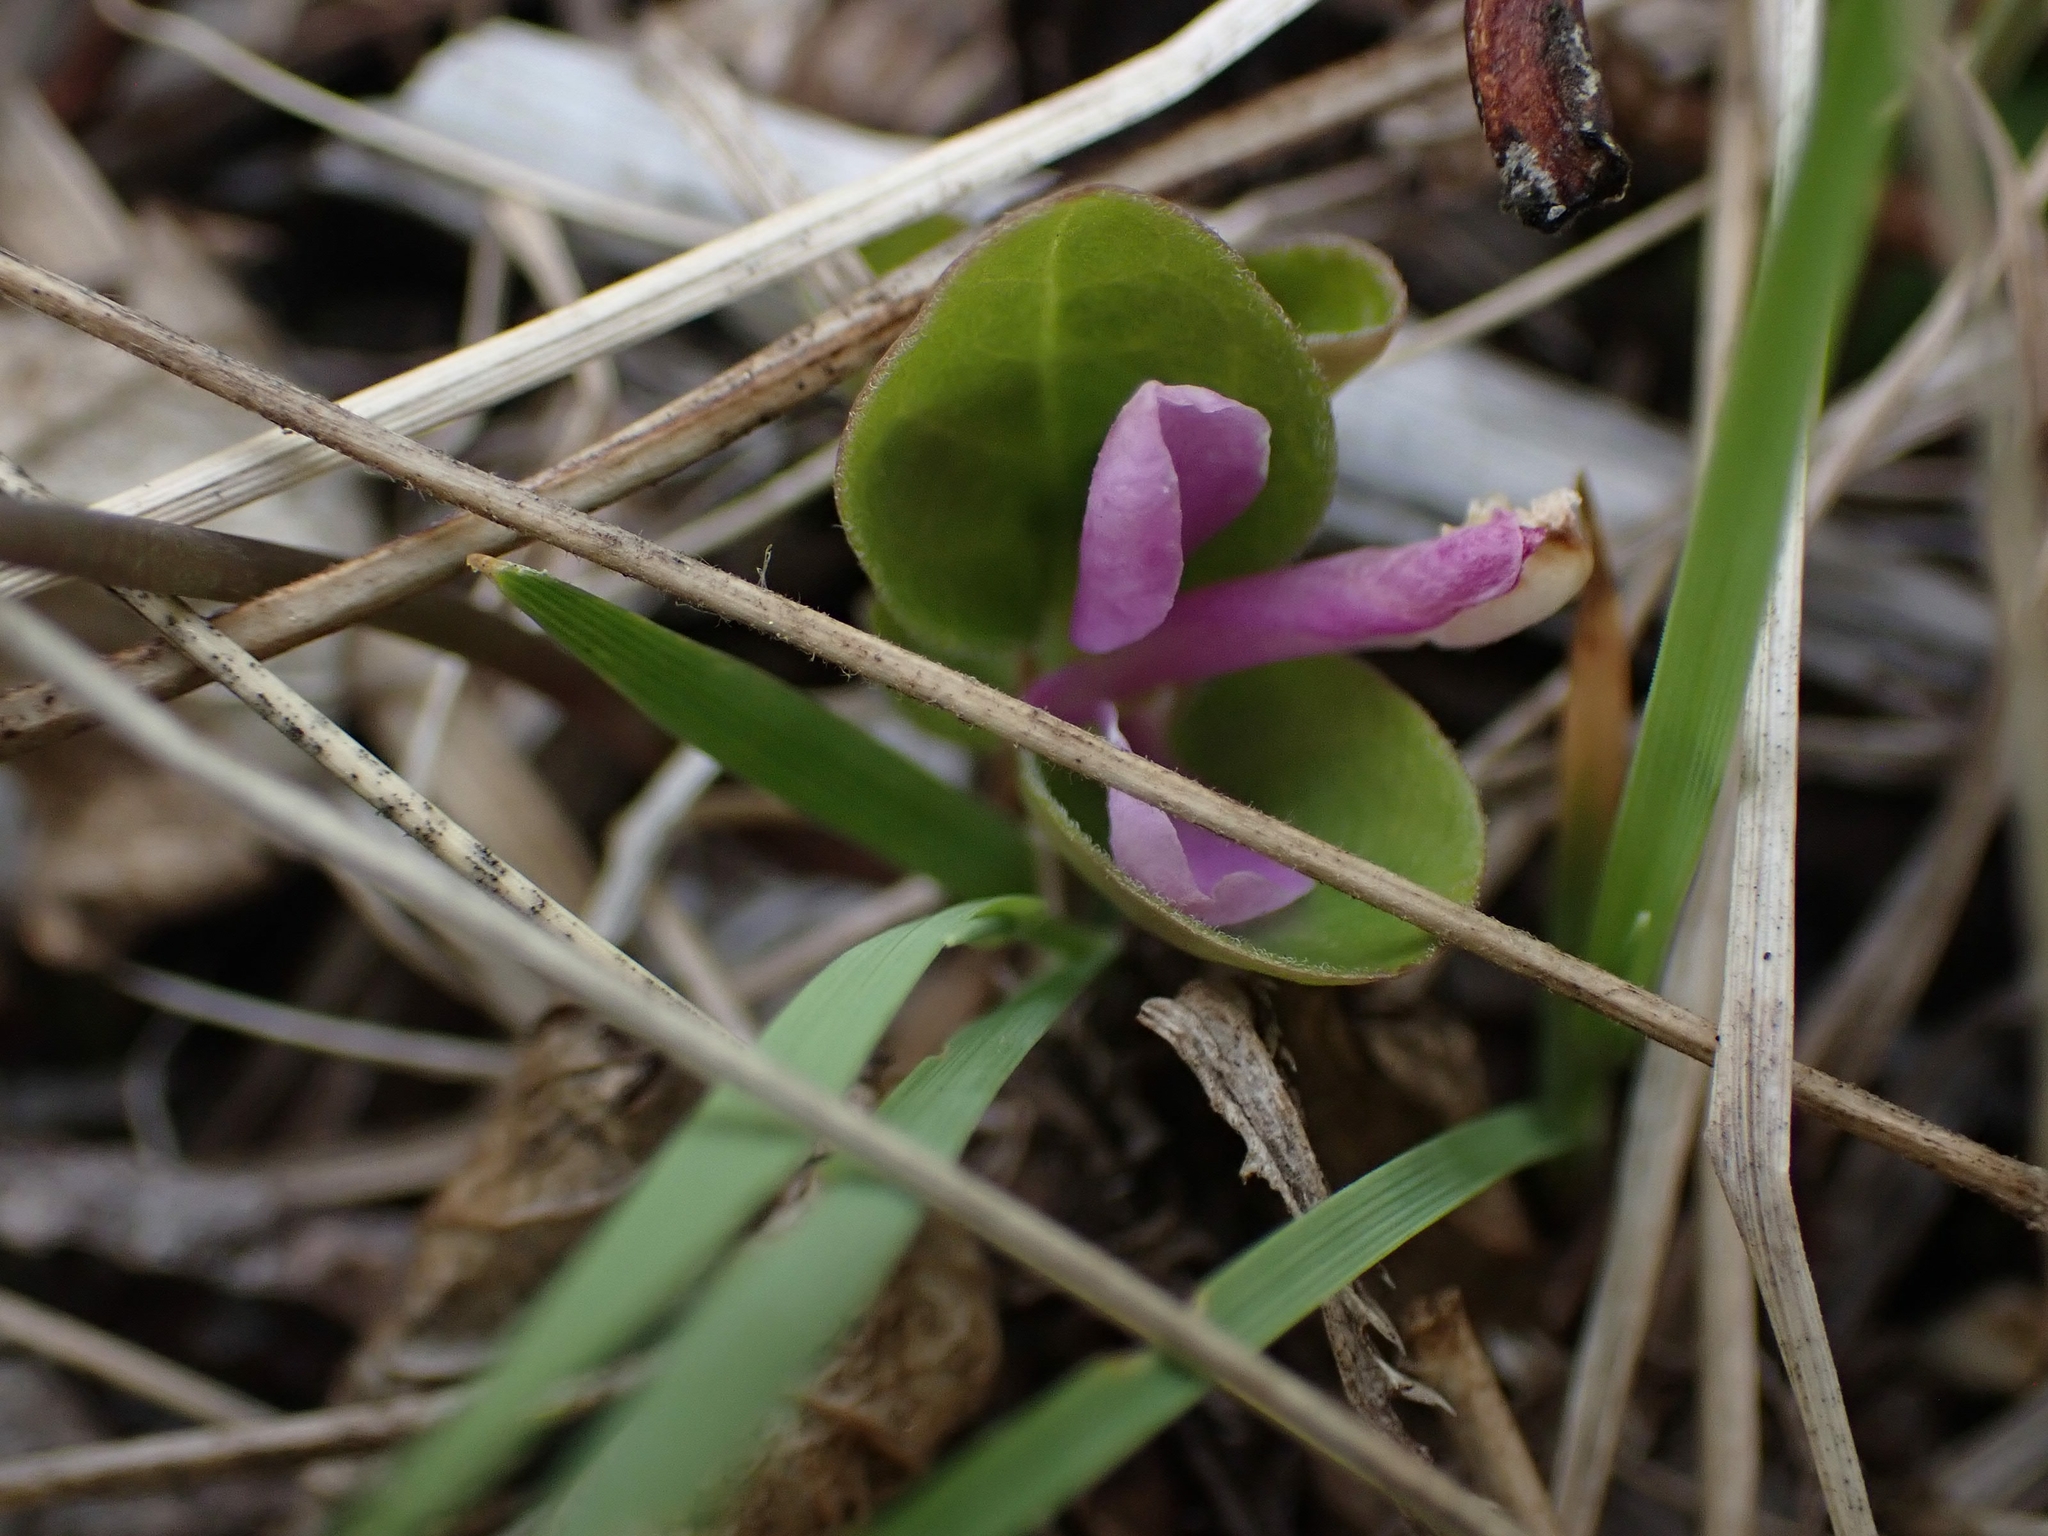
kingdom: Plantae
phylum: Tracheophyta
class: Magnoliopsida
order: Fabales
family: Polygalaceae
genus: Polygaloides
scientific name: Polygaloides paucifolia
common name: Bird-on-the-wing
